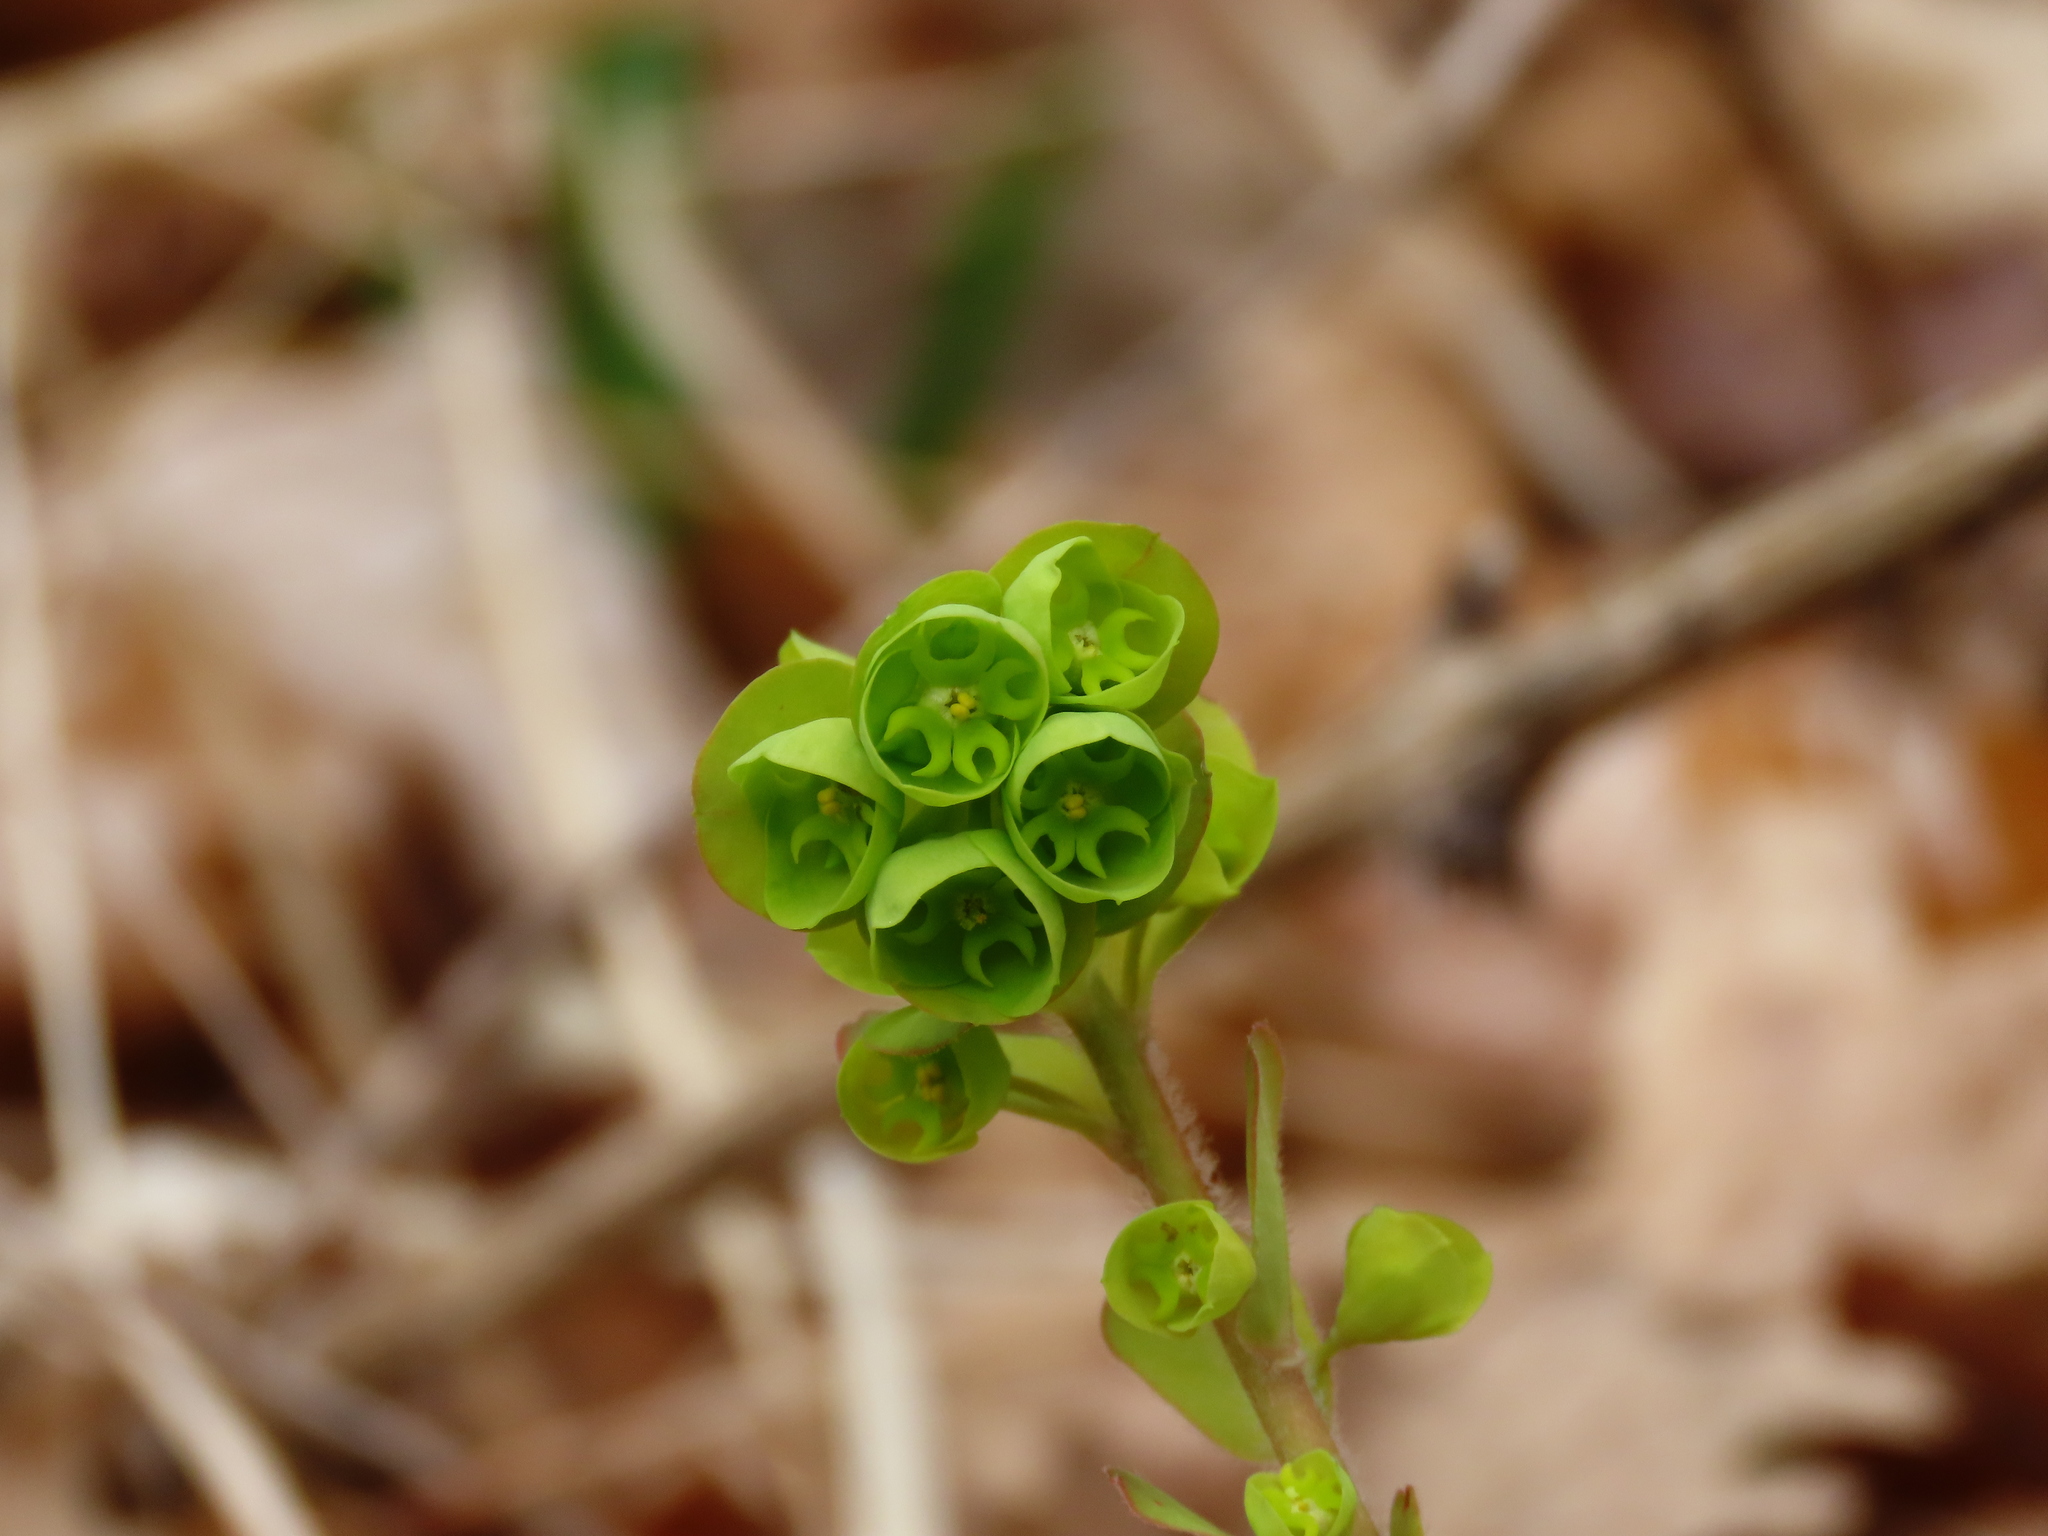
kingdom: Plantae
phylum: Tracheophyta
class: Magnoliopsida
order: Malpighiales
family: Euphorbiaceae
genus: Euphorbia
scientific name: Euphorbia amygdaloides
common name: Wood spurge
